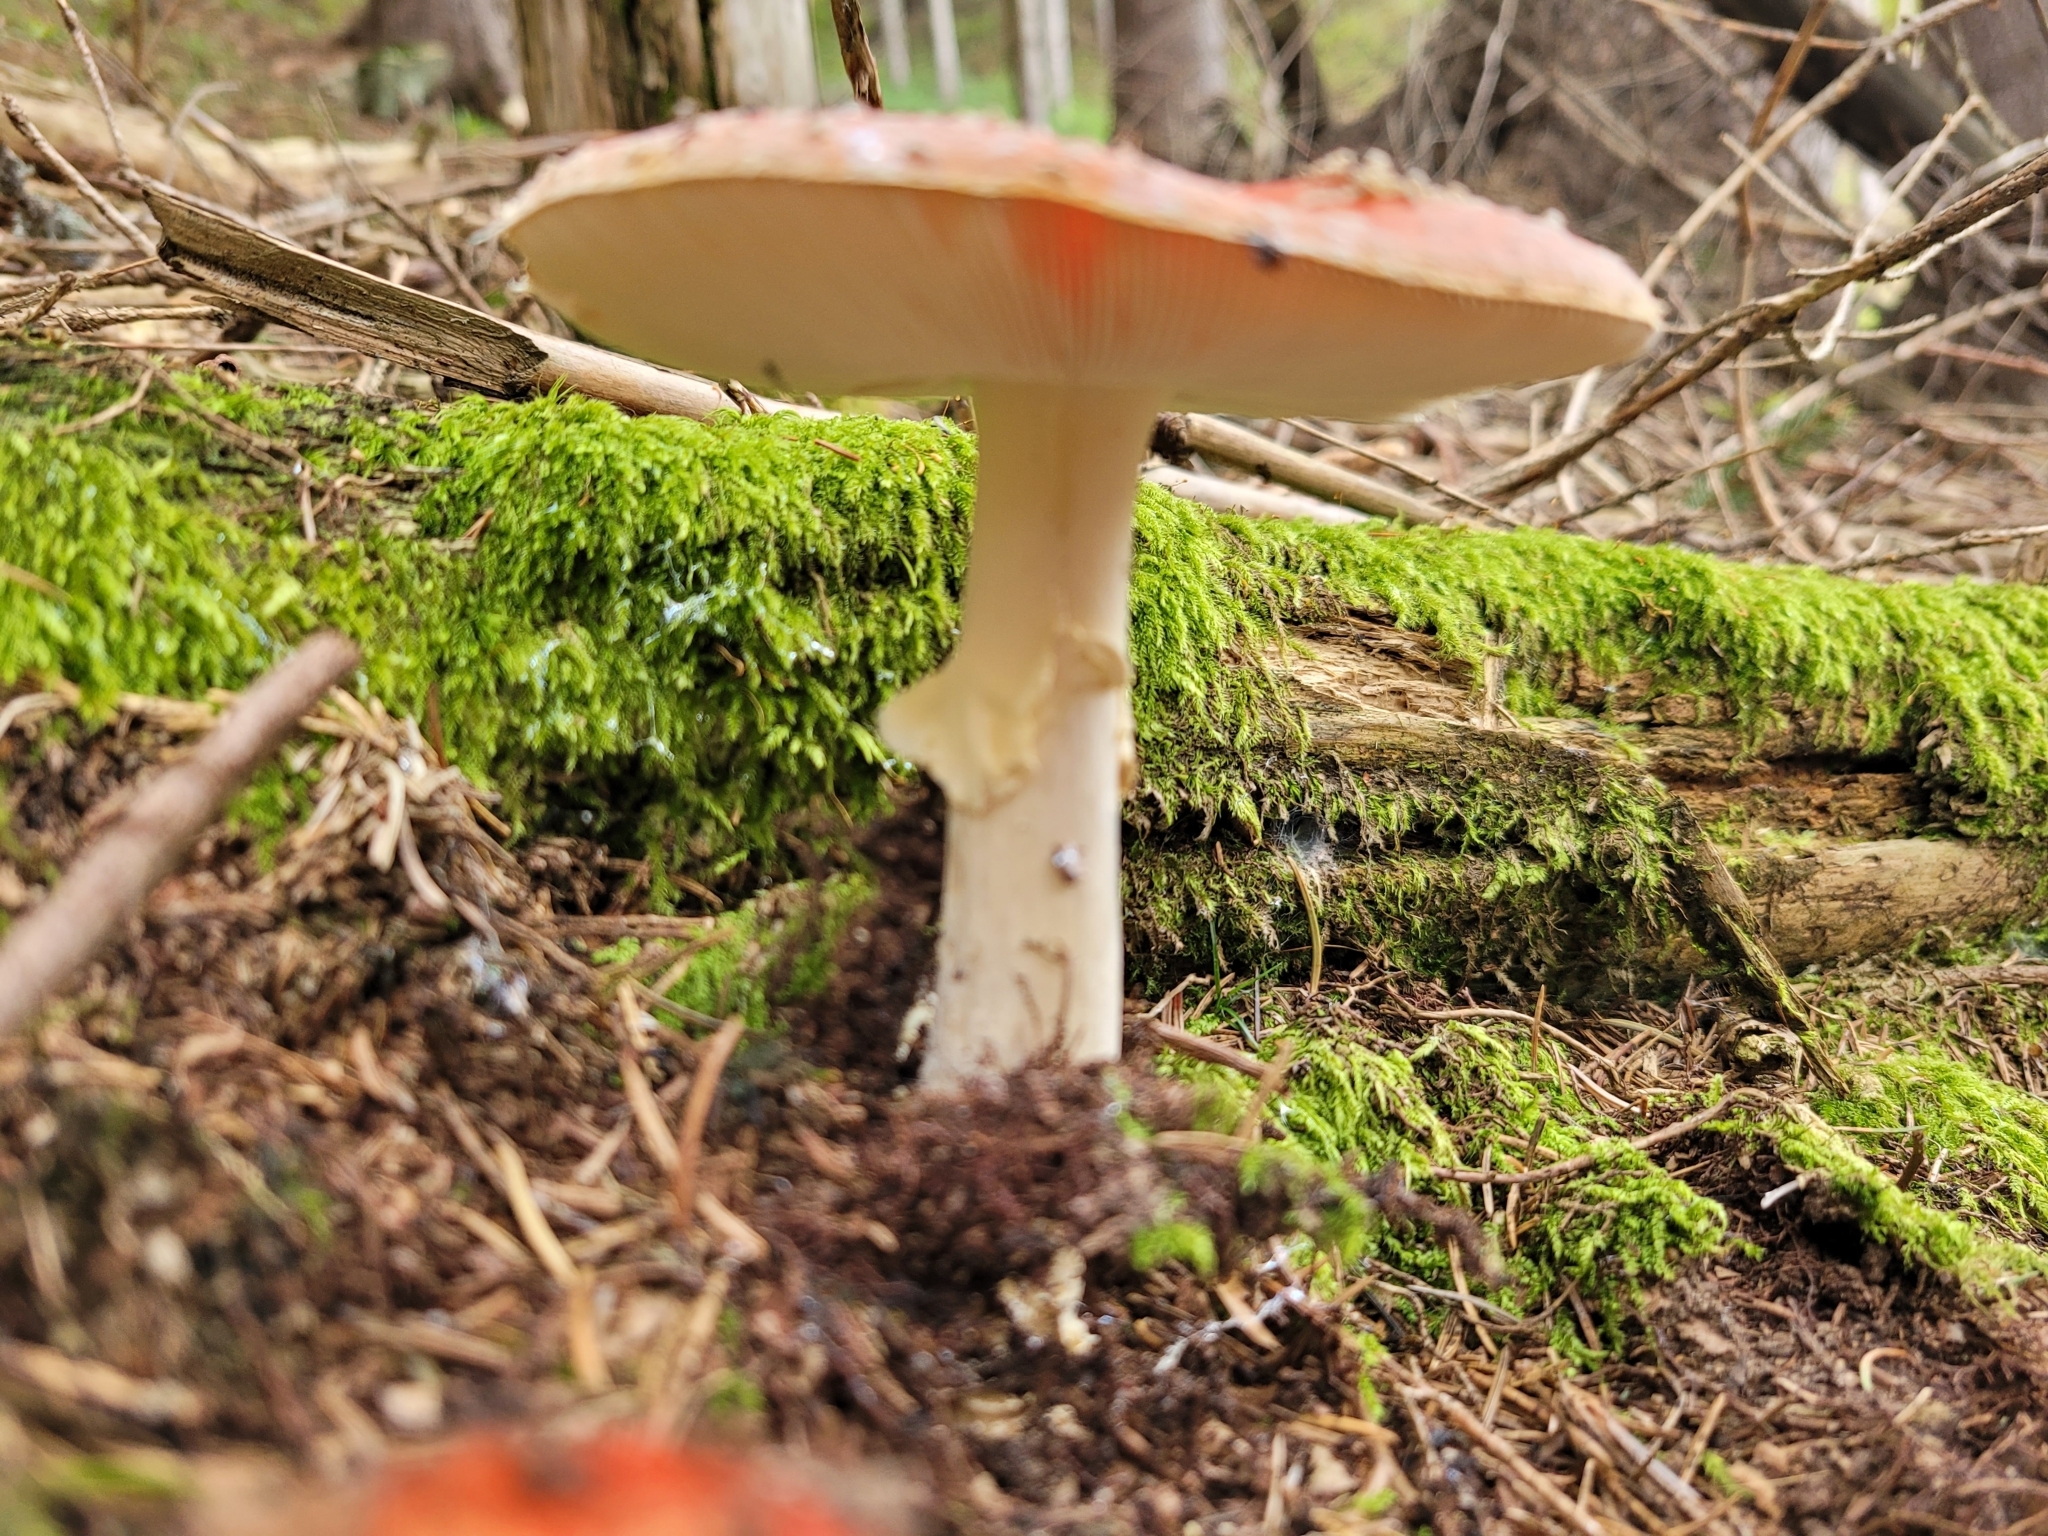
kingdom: Fungi
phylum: Basidiomycota
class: Agaricomycetes
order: Agaricales
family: Amanitaceae
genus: Amanita
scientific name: Amanita muscaria
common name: Fly agaric
